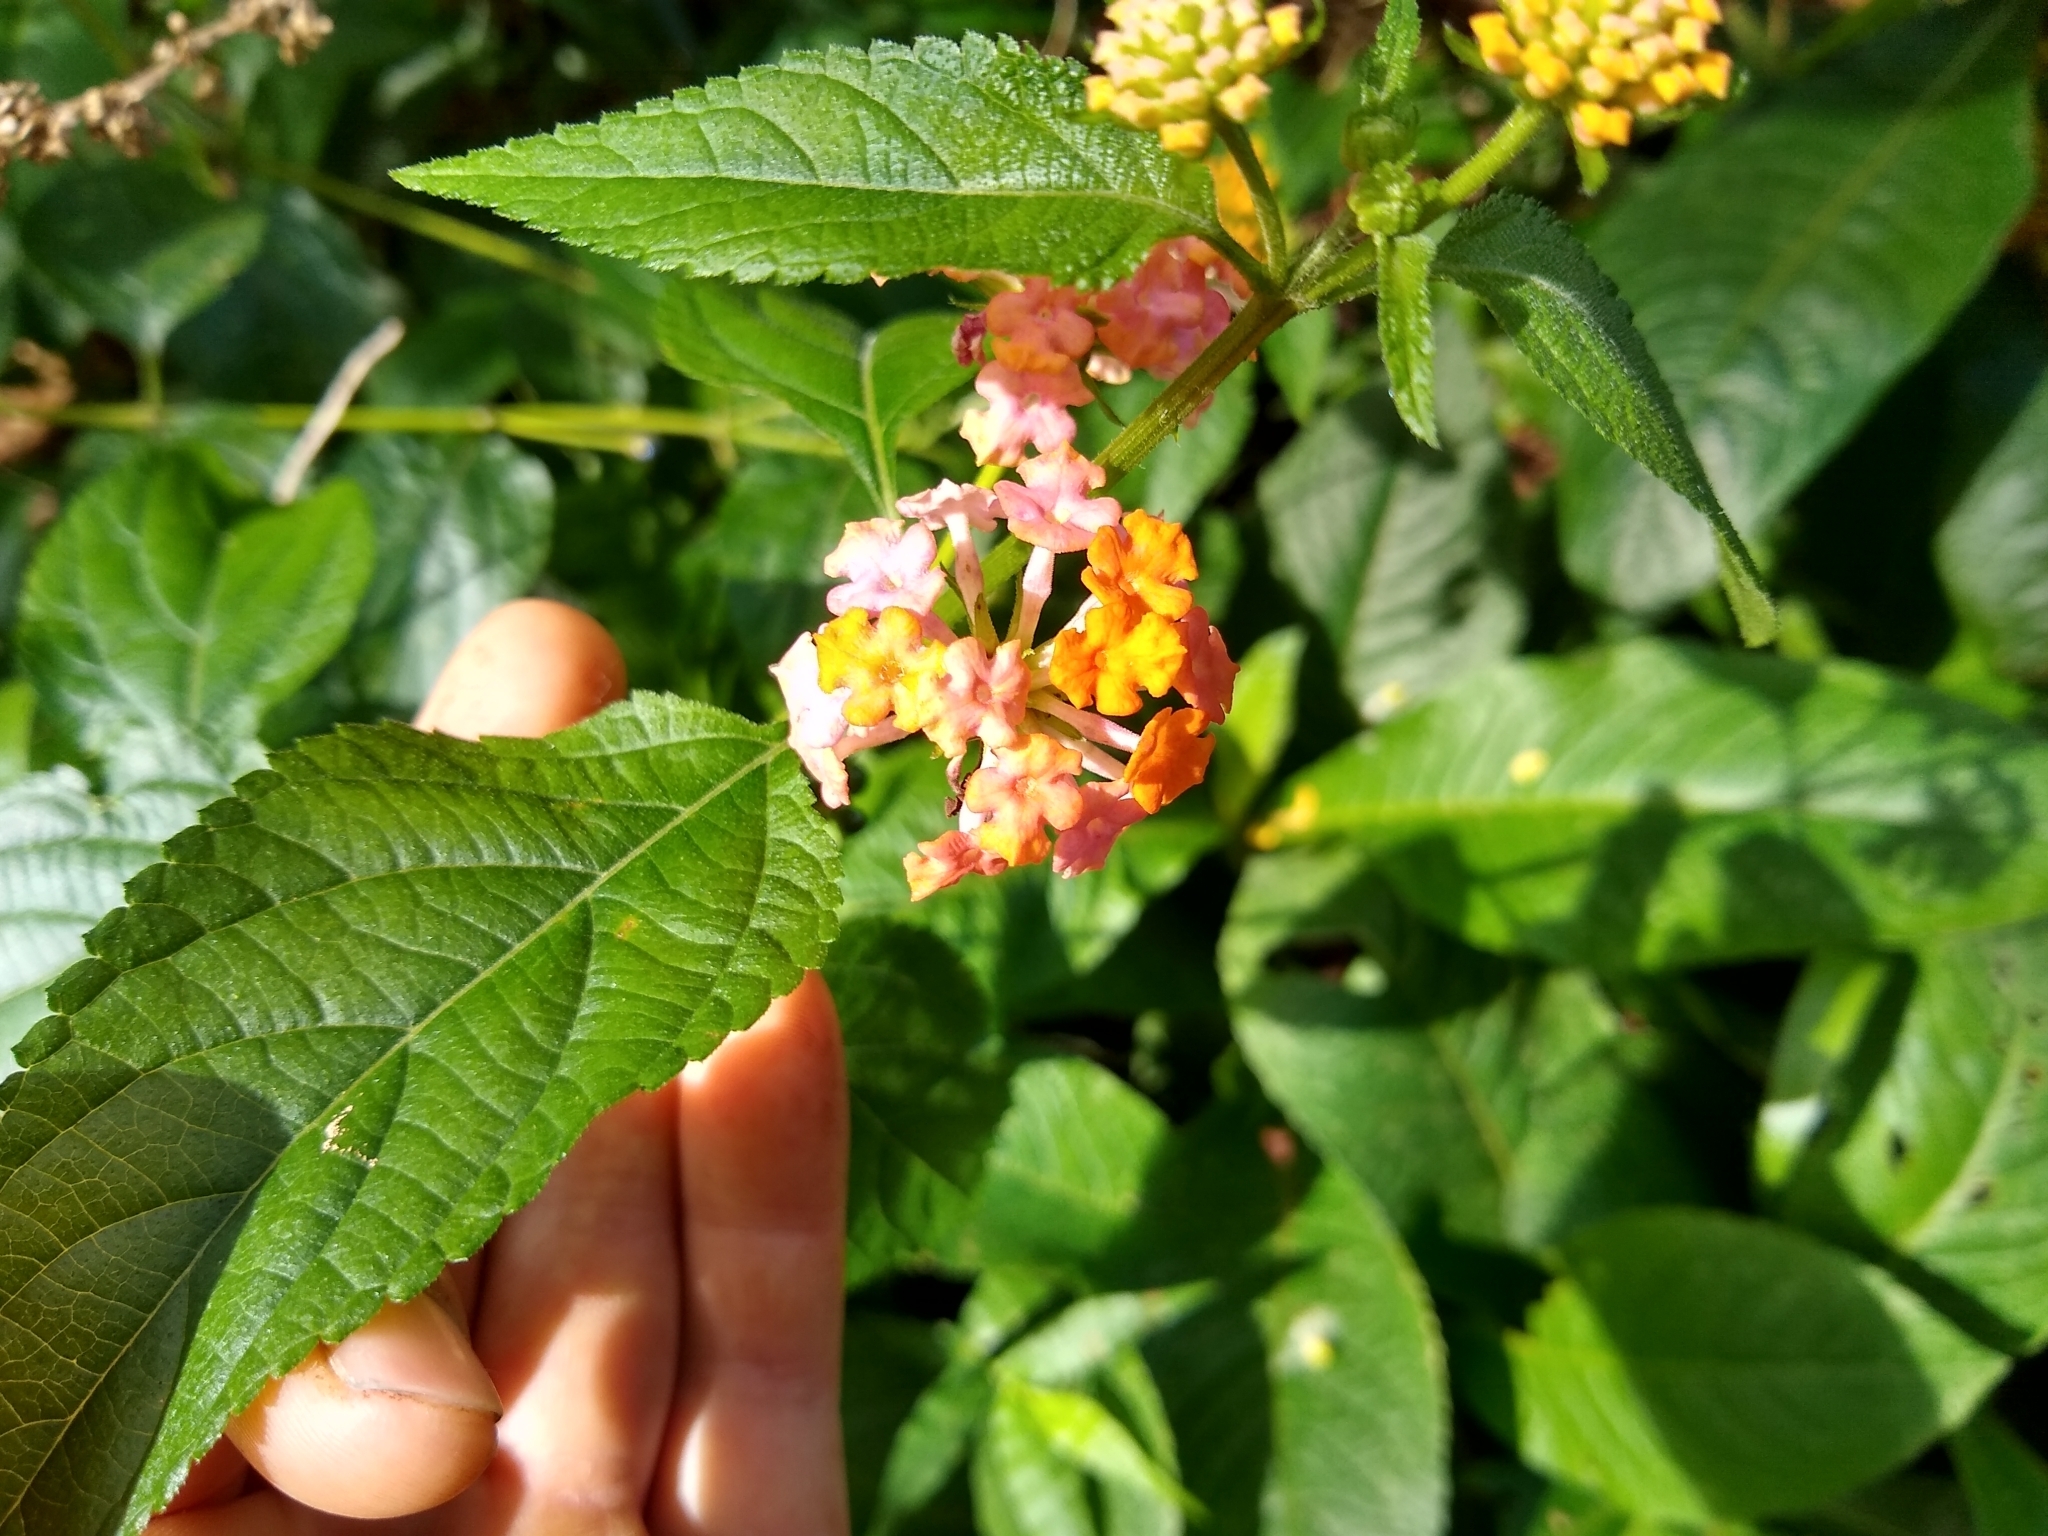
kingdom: Plantae
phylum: Tracheophyta
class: Magnoliopsida
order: Lamiales
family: Verbenaceae
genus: Lantana
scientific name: Lantana camara
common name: Lantana
